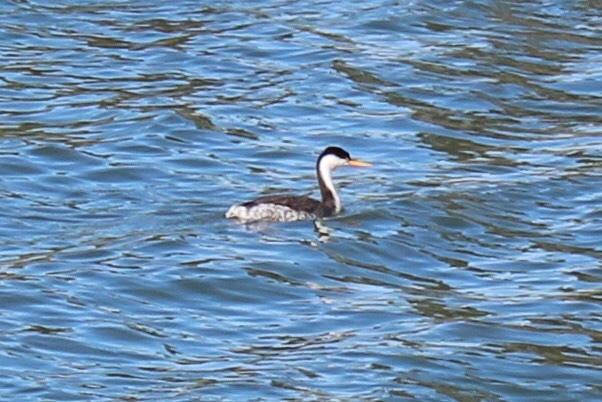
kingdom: Animalia
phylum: Chordata
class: Aves
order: Podicipediformes
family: Podicipedidae
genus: Aechmophorus
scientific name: Aechmophorus occidentalis
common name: Western grebe
